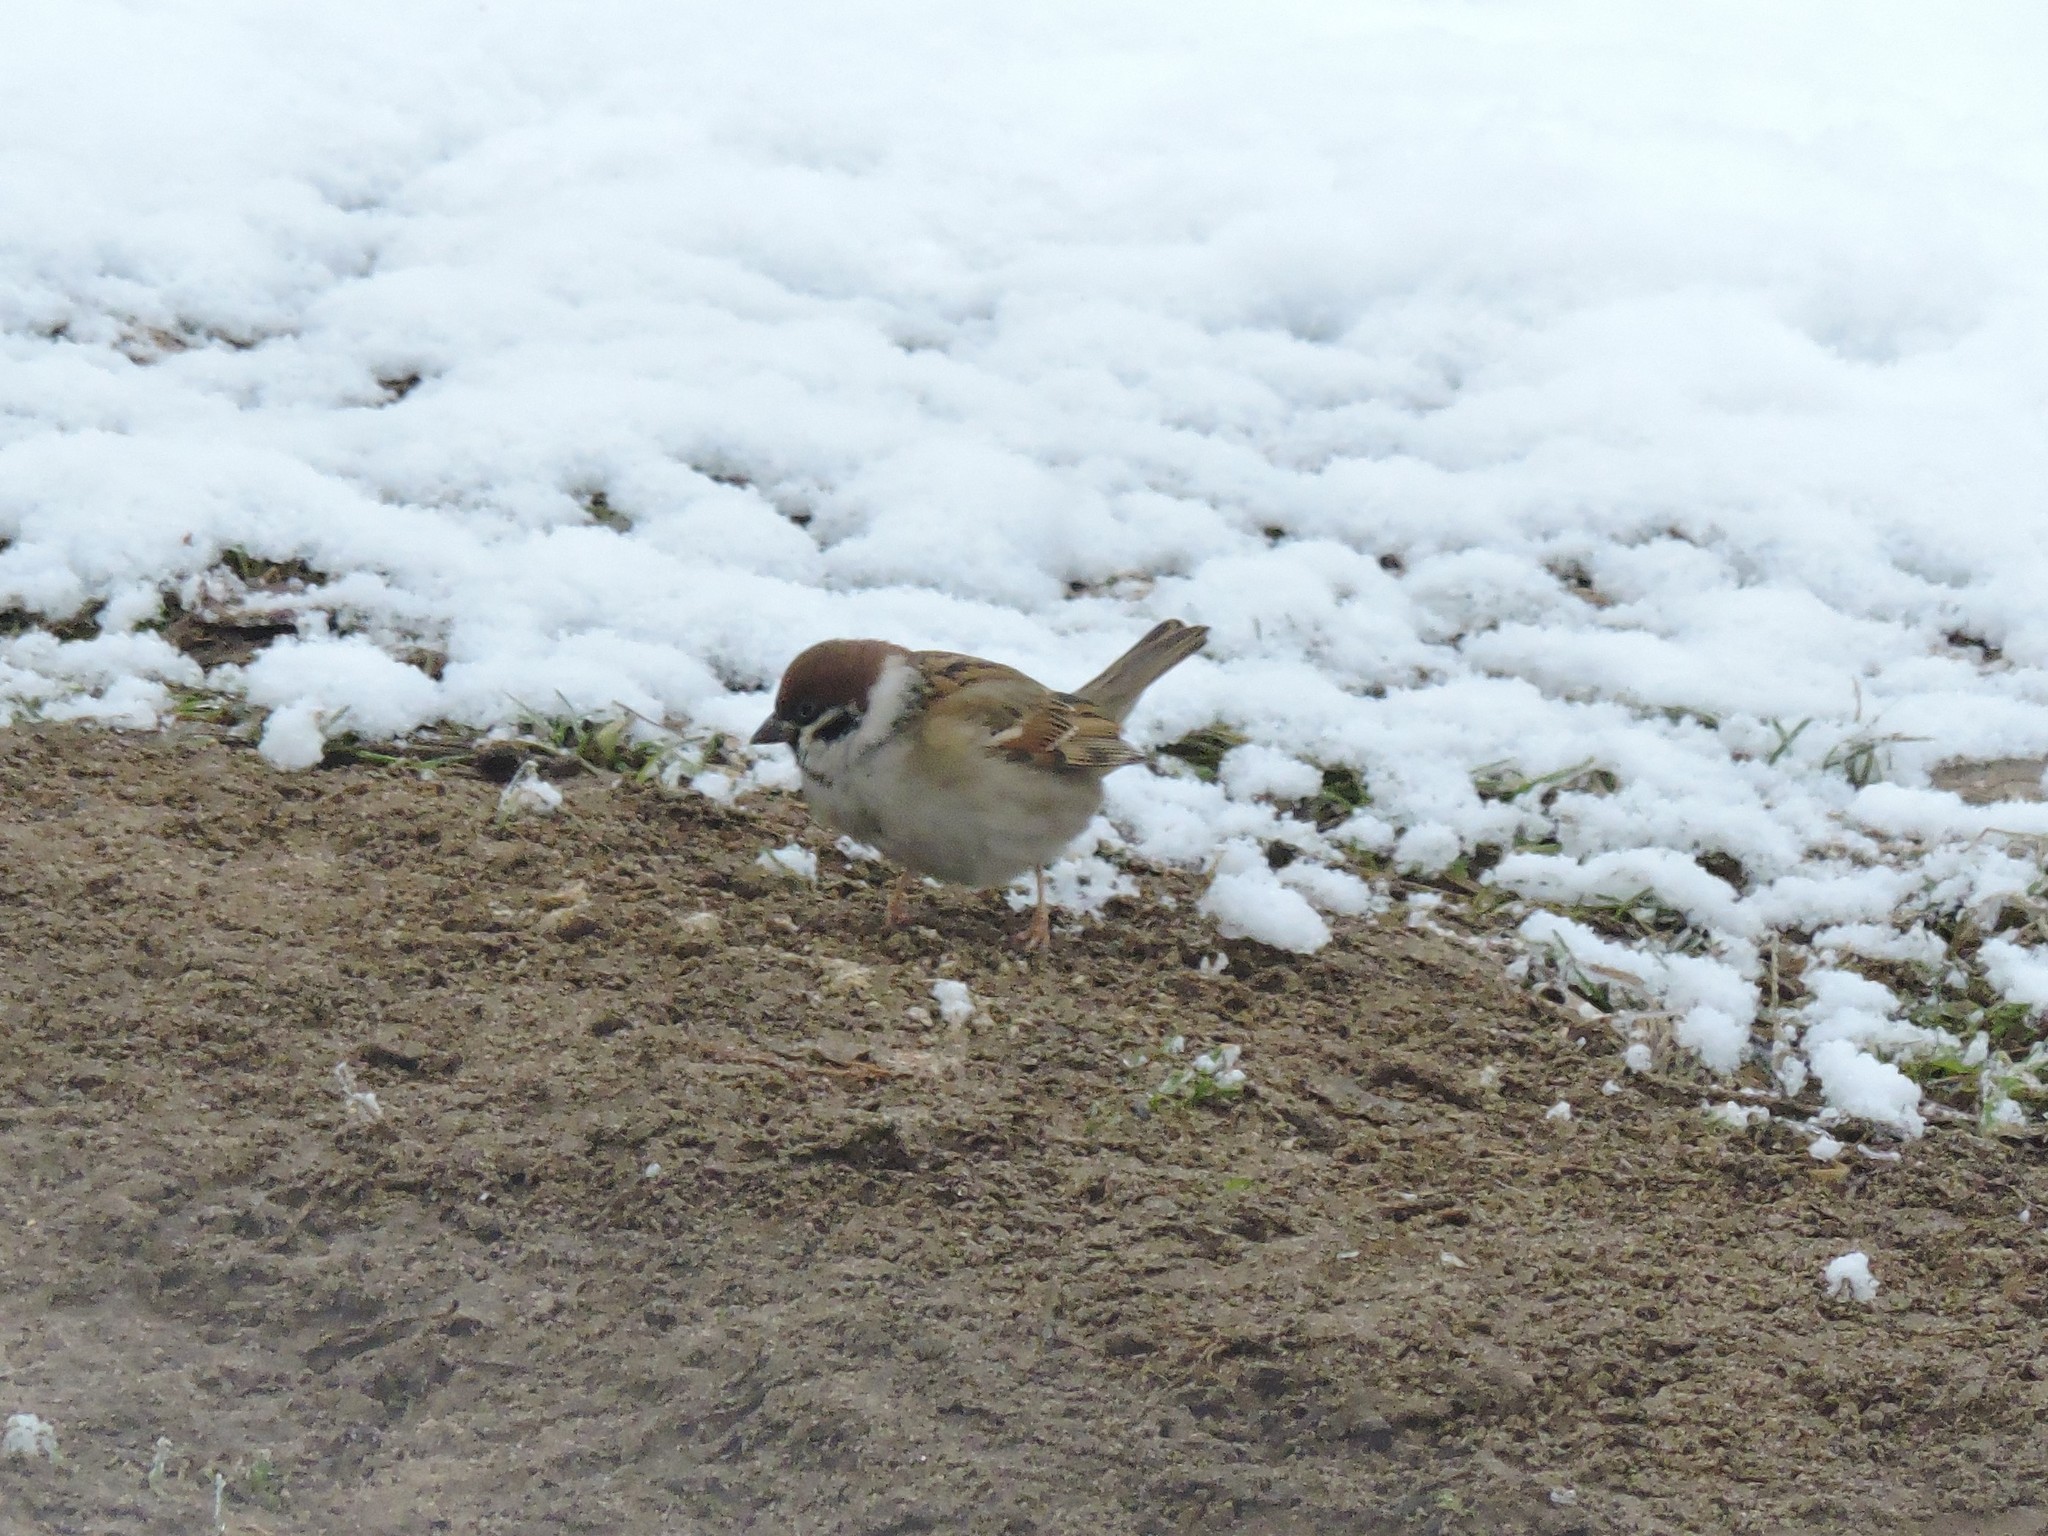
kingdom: Animalia
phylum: Chordata
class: Aves
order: Passeriformes
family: Passeridae
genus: Passer
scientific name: Passer montanus
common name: Eurasian tree sparrow
